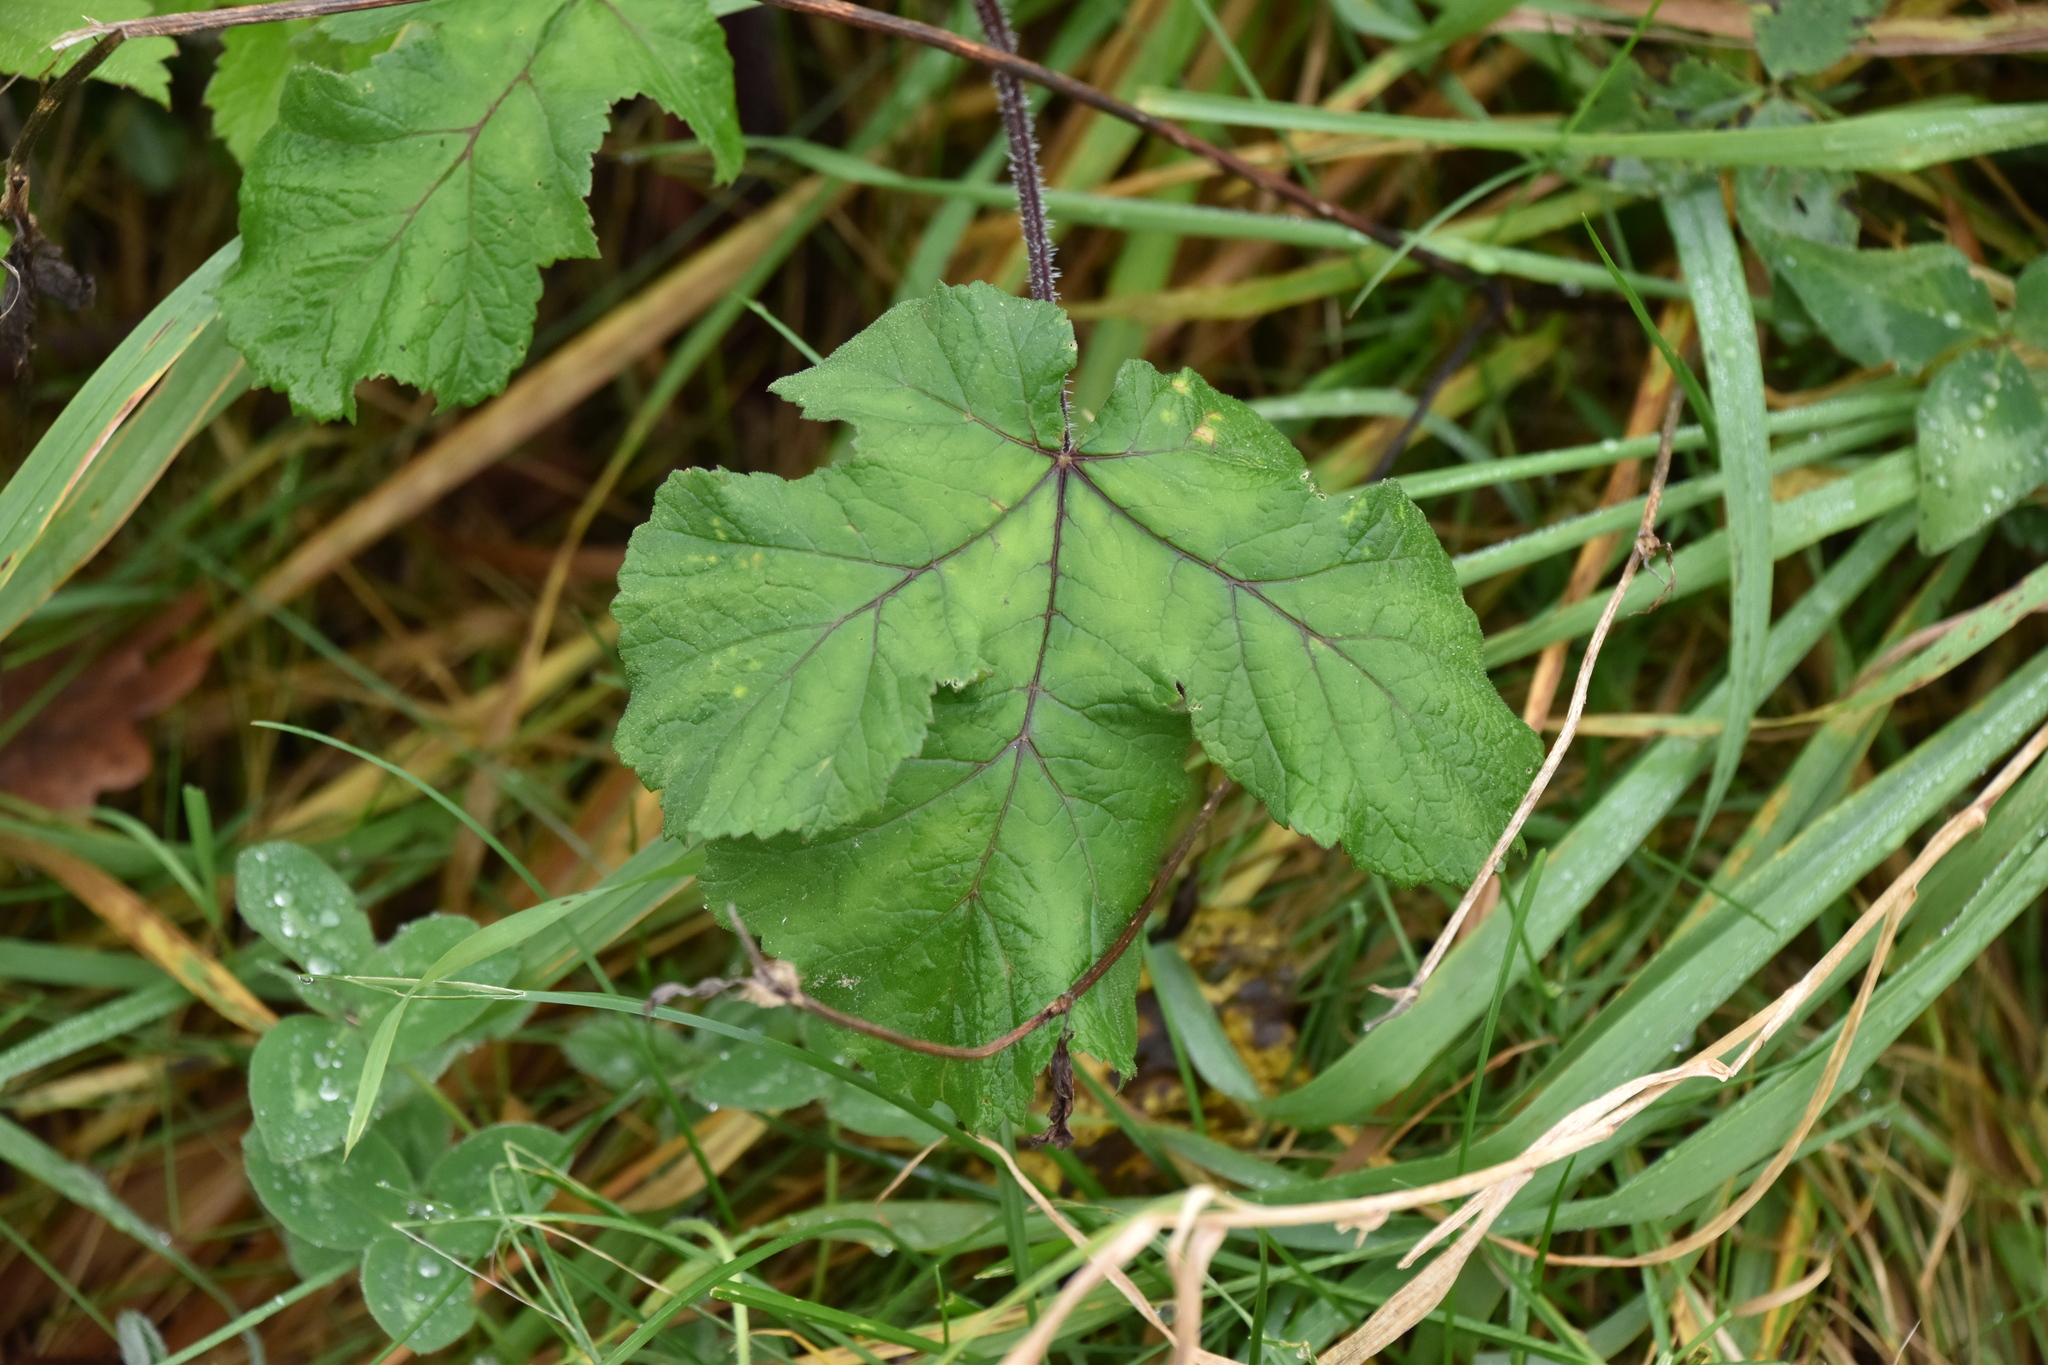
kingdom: Plantae
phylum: Tracheophyta
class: Magnoliopsida
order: Apiales
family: Apiaceae
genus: Heracleum
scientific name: Heracleum sphondylium
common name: Hogweed
